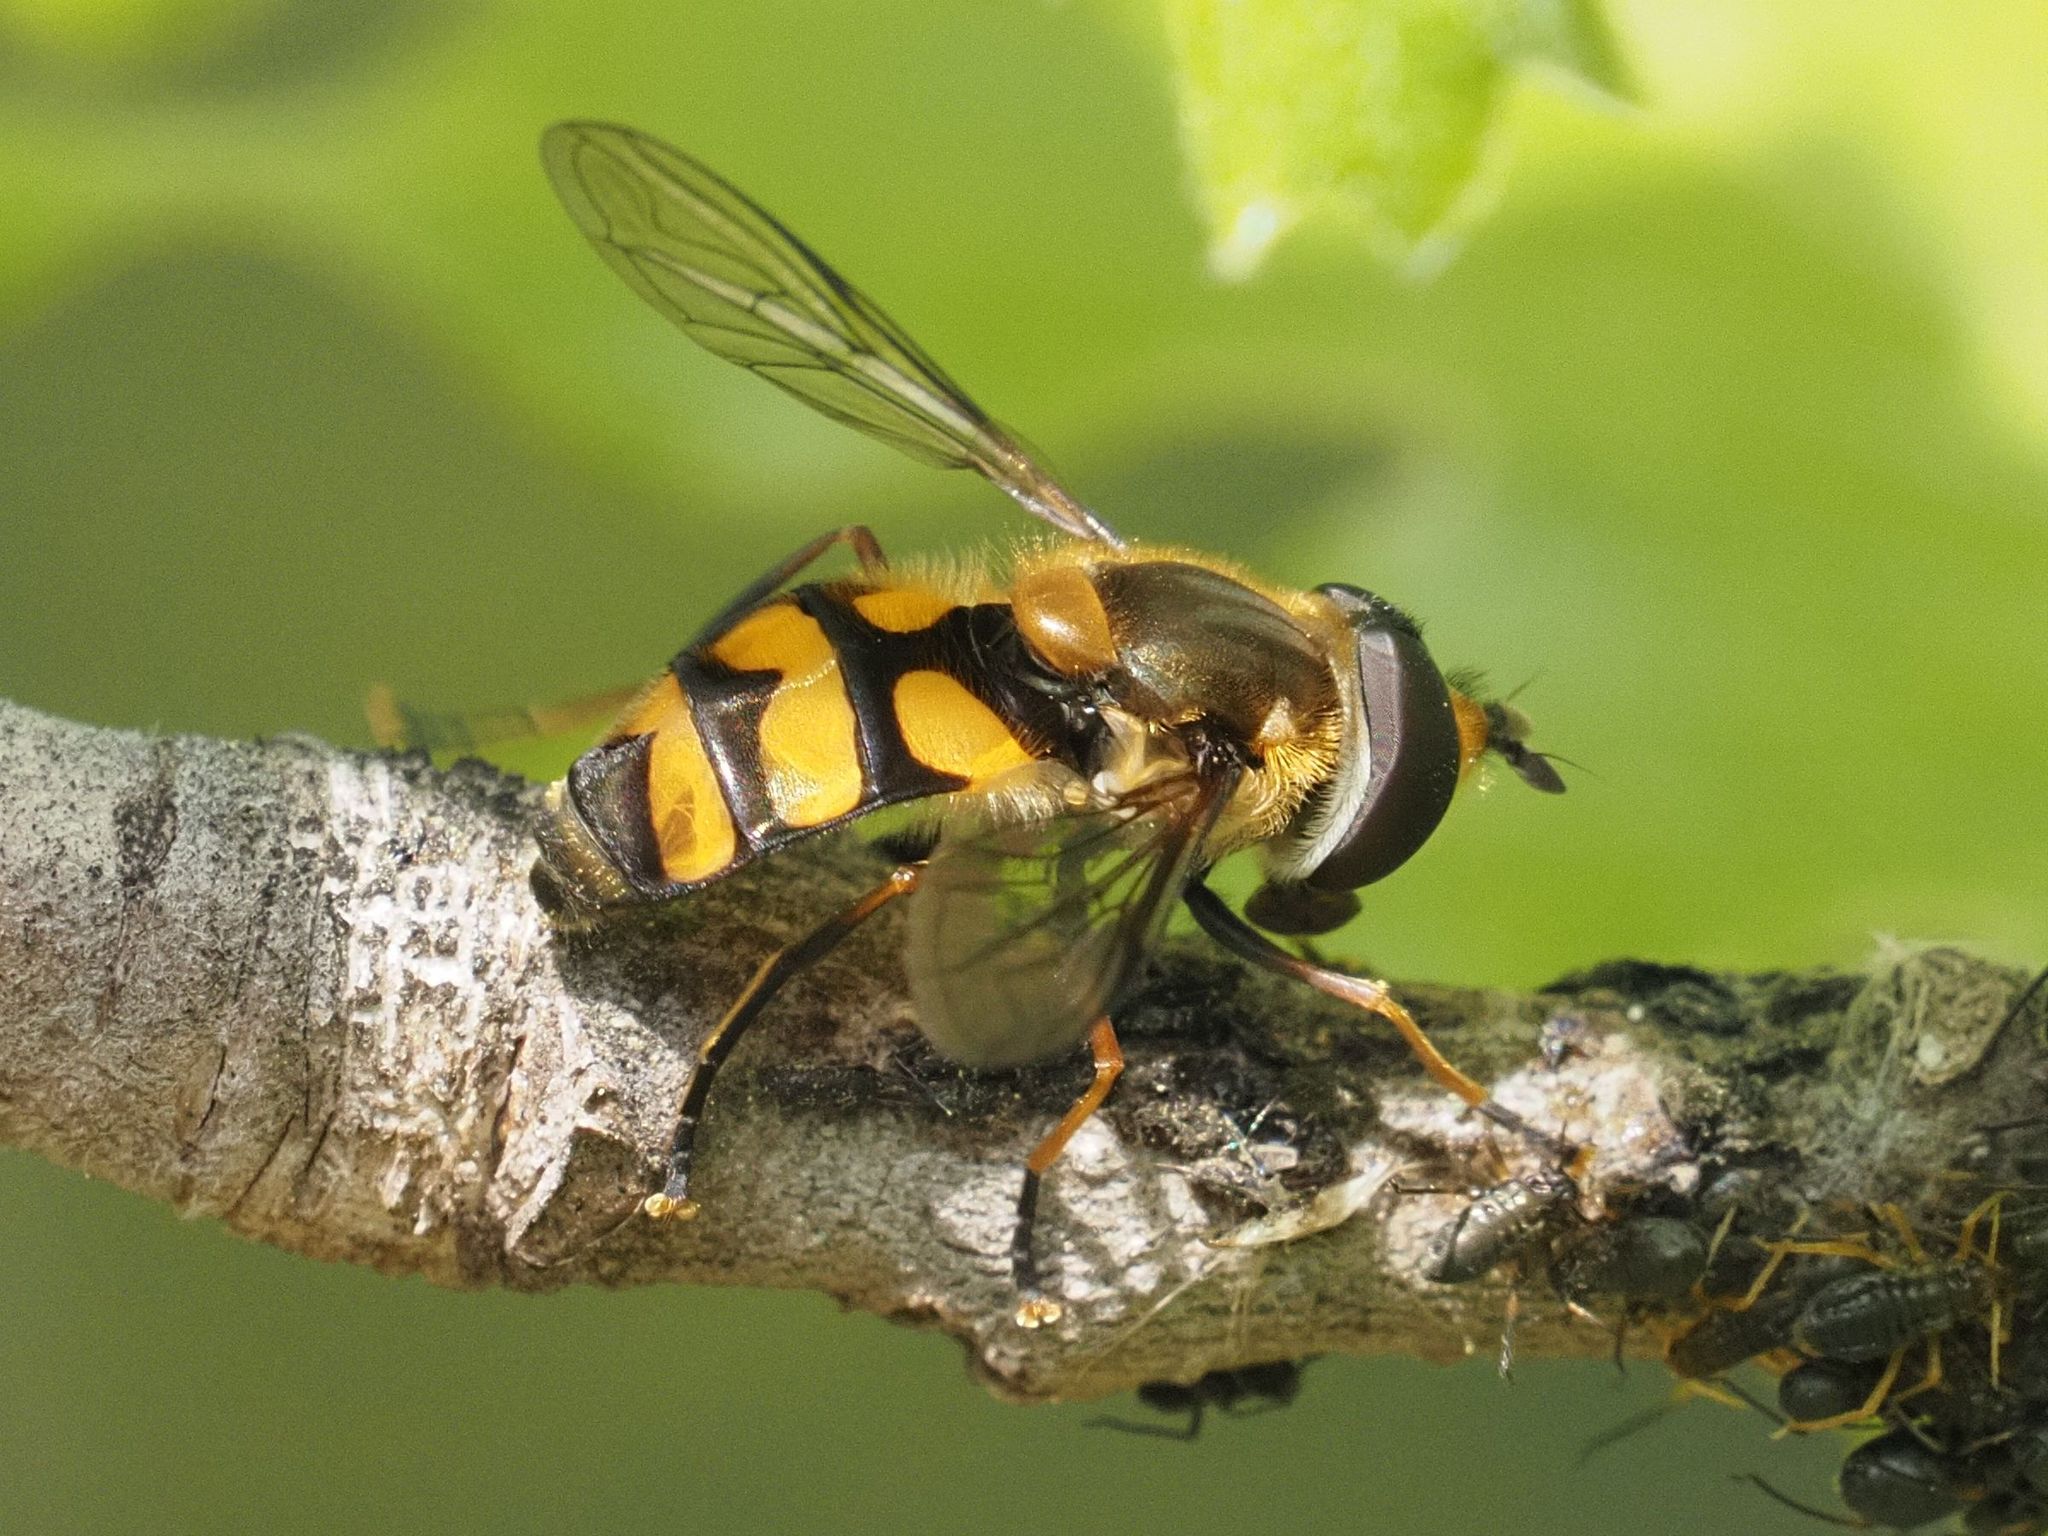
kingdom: Animalia
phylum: Arthropoda
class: Insecta
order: Diptera
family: Syrphidae
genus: Didea
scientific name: Didea fasciata
